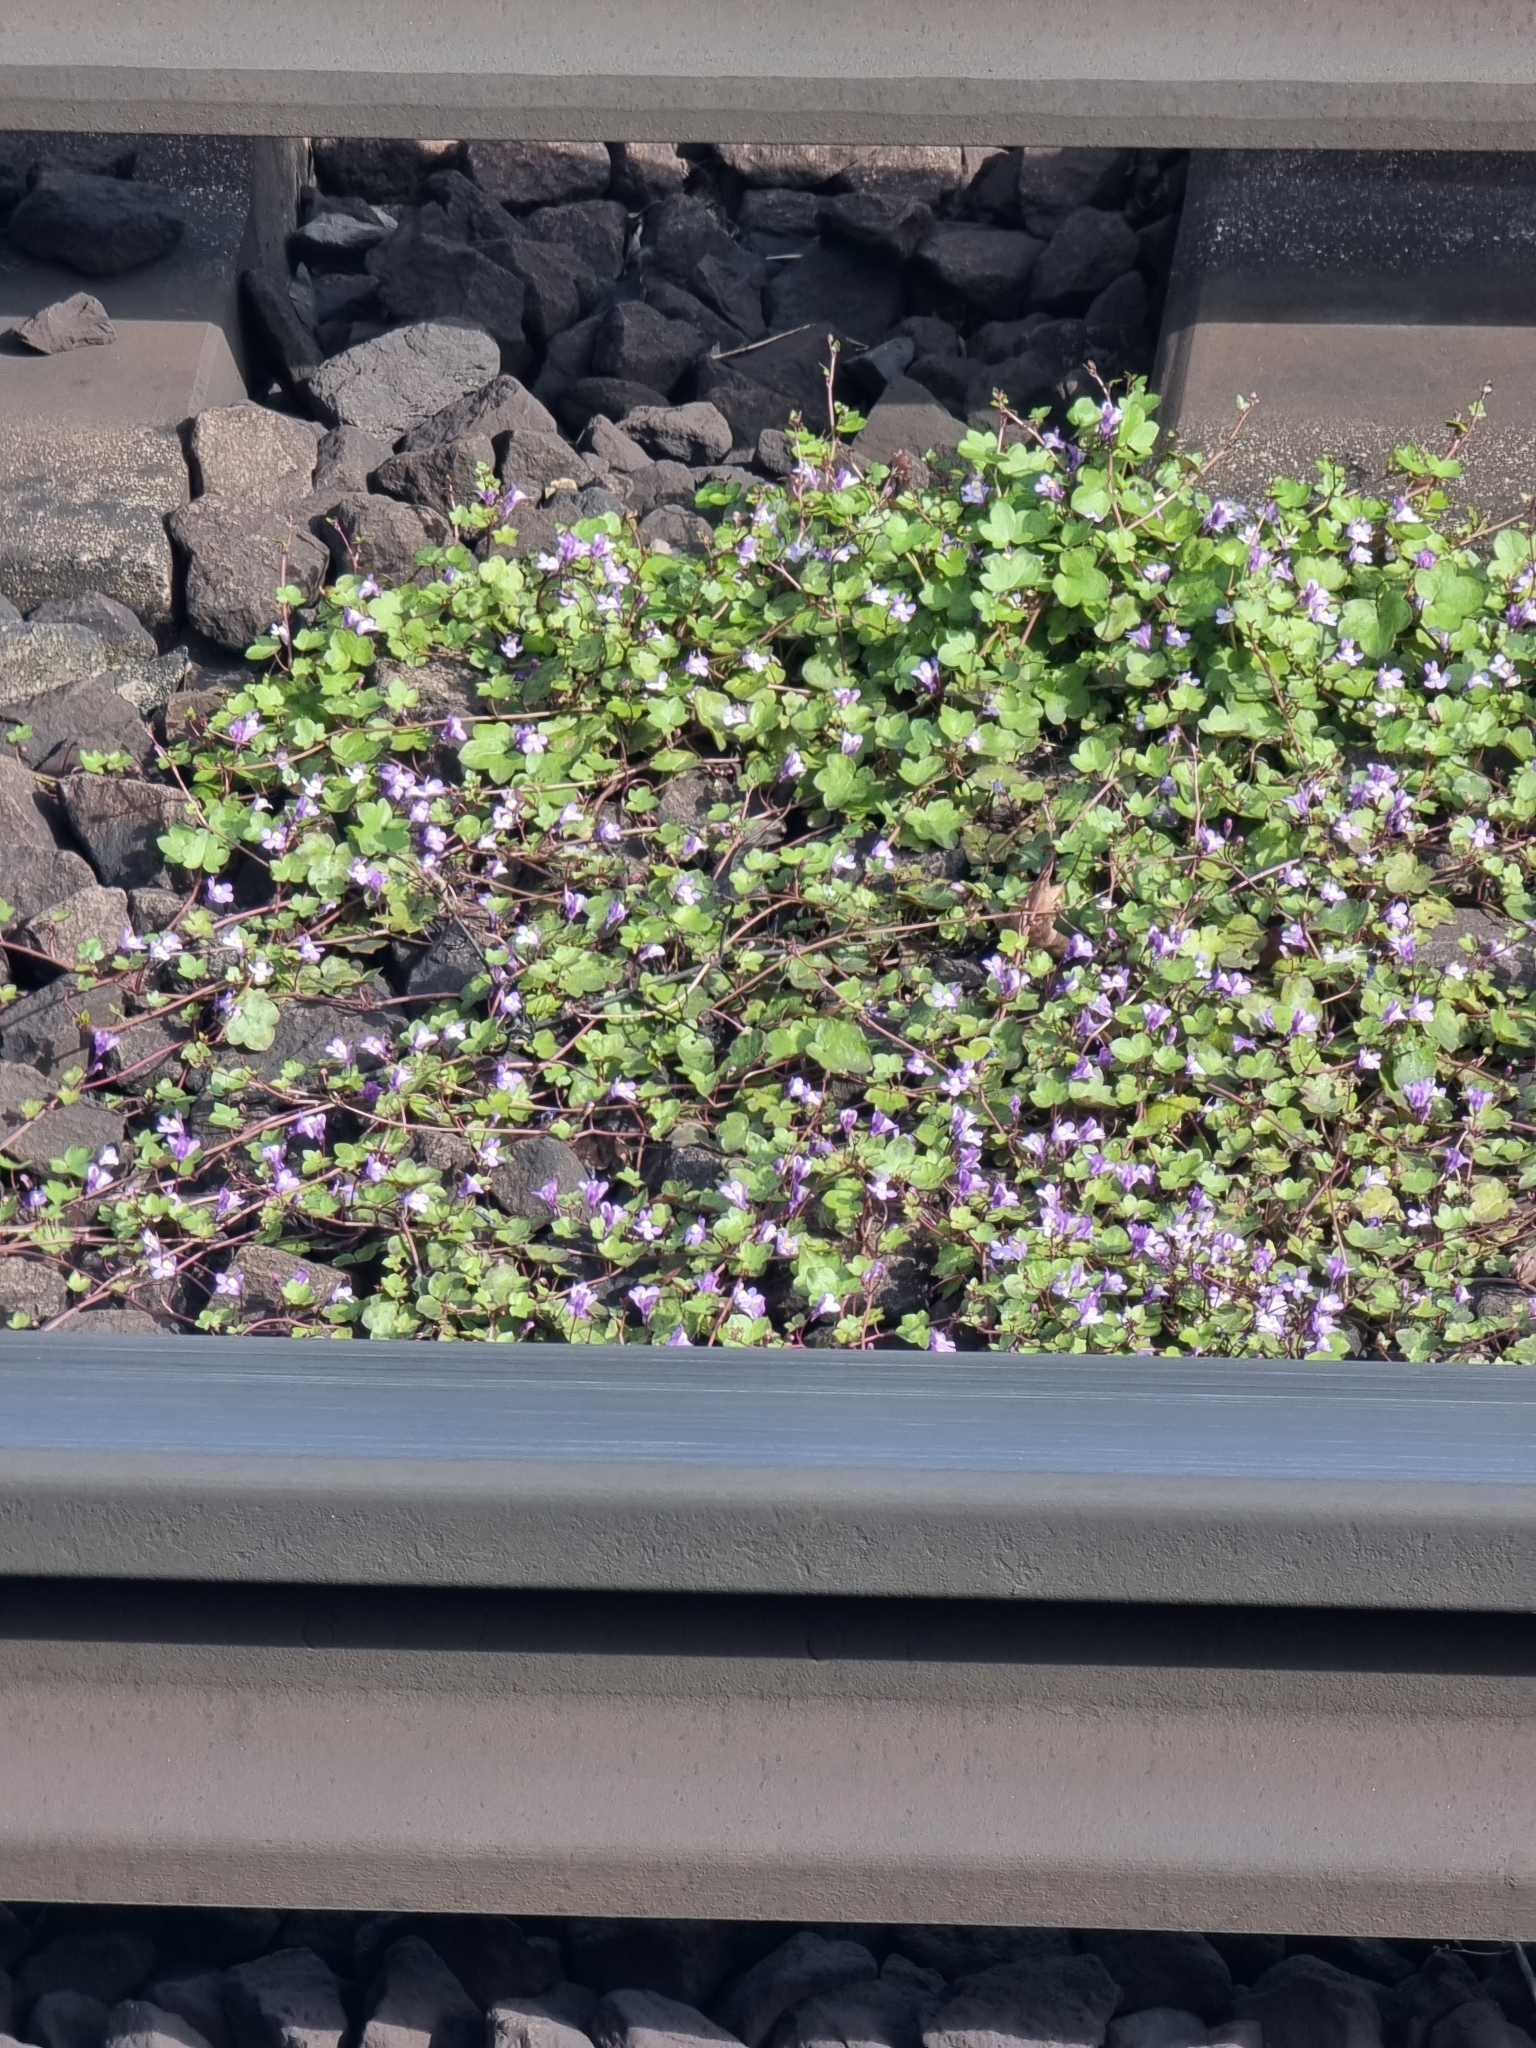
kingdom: Plantae
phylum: Tracheophyta
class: Magnoliopsida
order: Lamiales
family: Plantaginaceae
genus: Cymbalaria
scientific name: Cymbalaria muralis
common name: Ivy-leaved toadflax
